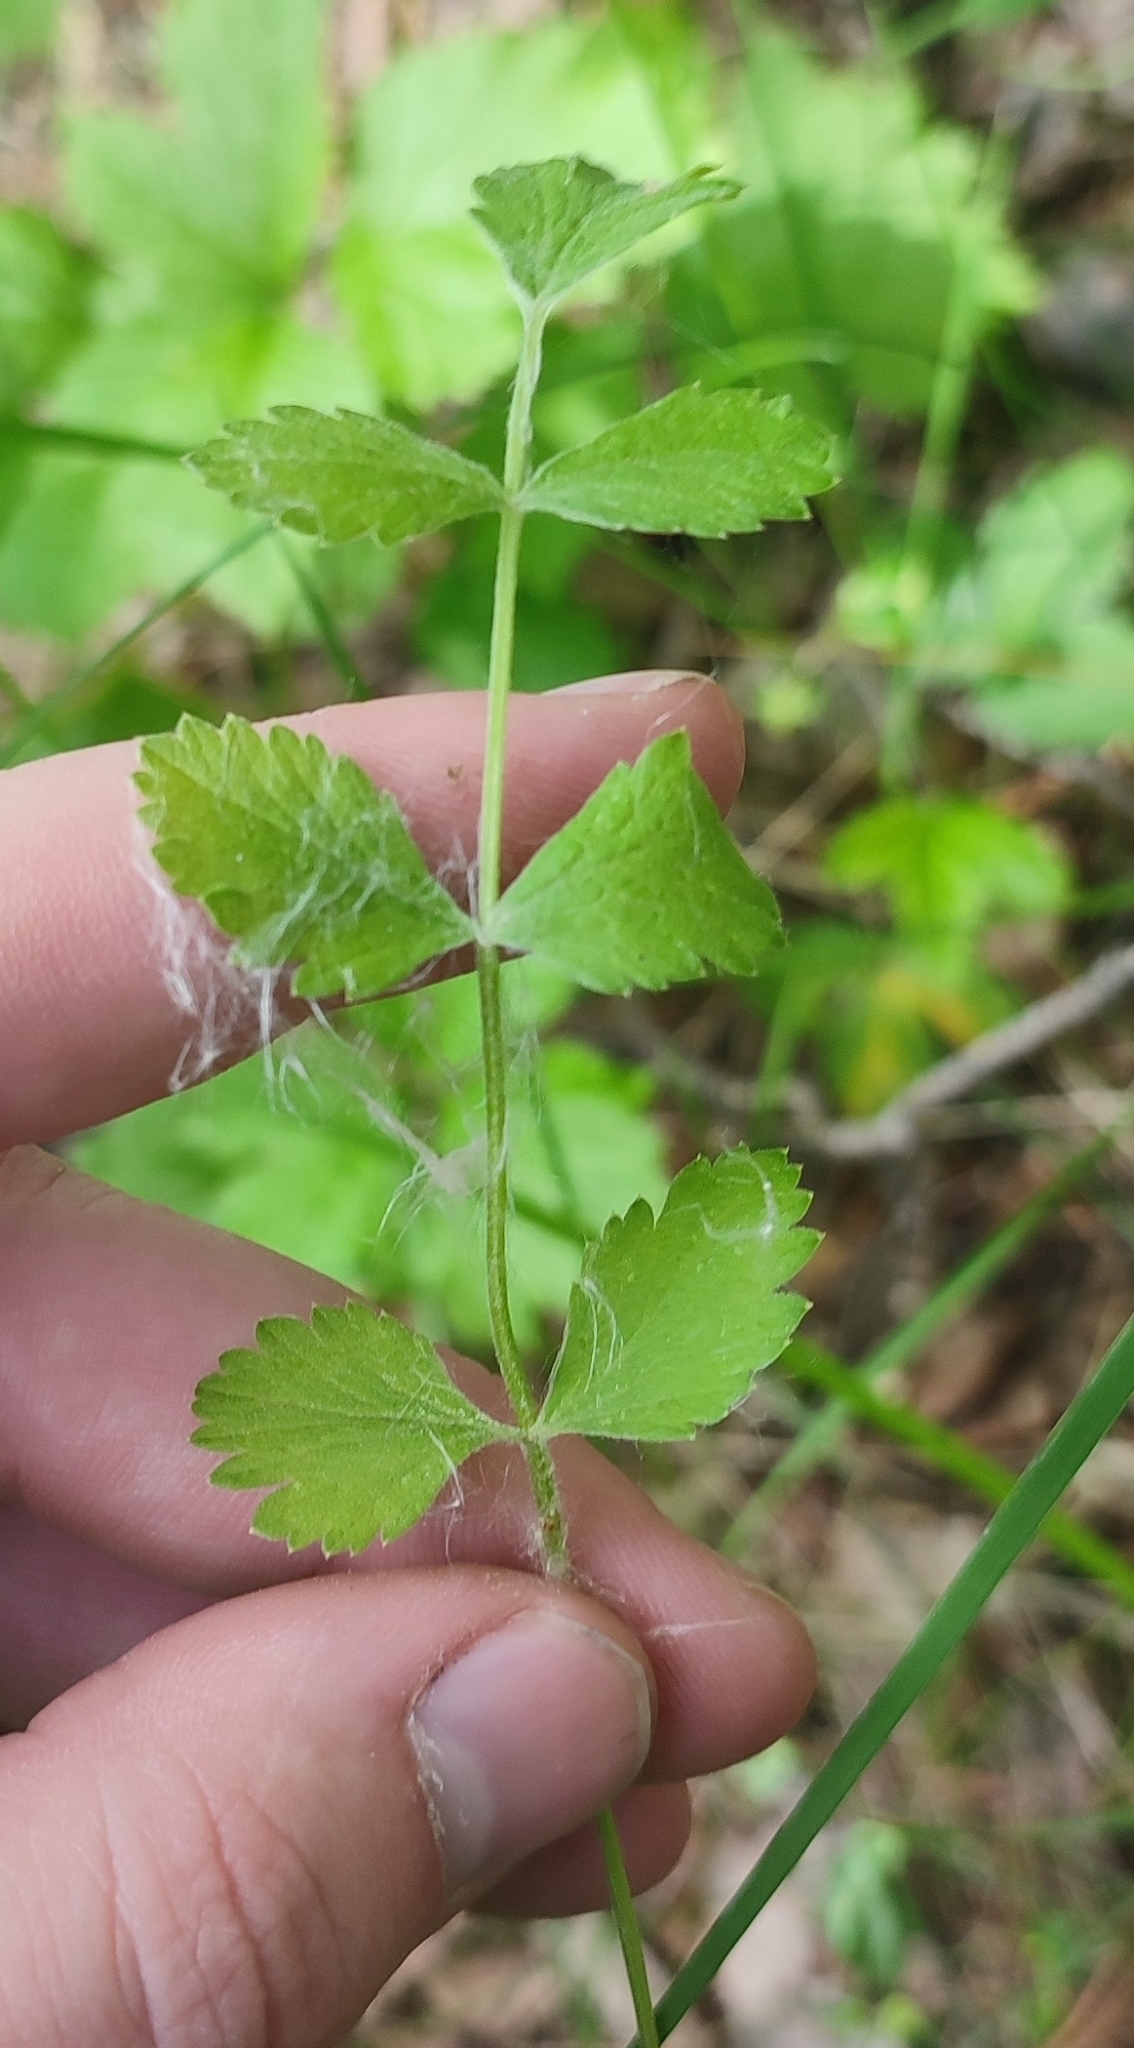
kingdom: Plantae
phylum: Tracheophyta
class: Magnoliopsida
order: Apiales
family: Apiaceae
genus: Pimpinella
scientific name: Pimpinella saxifraga
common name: Burnet-saxifrage
